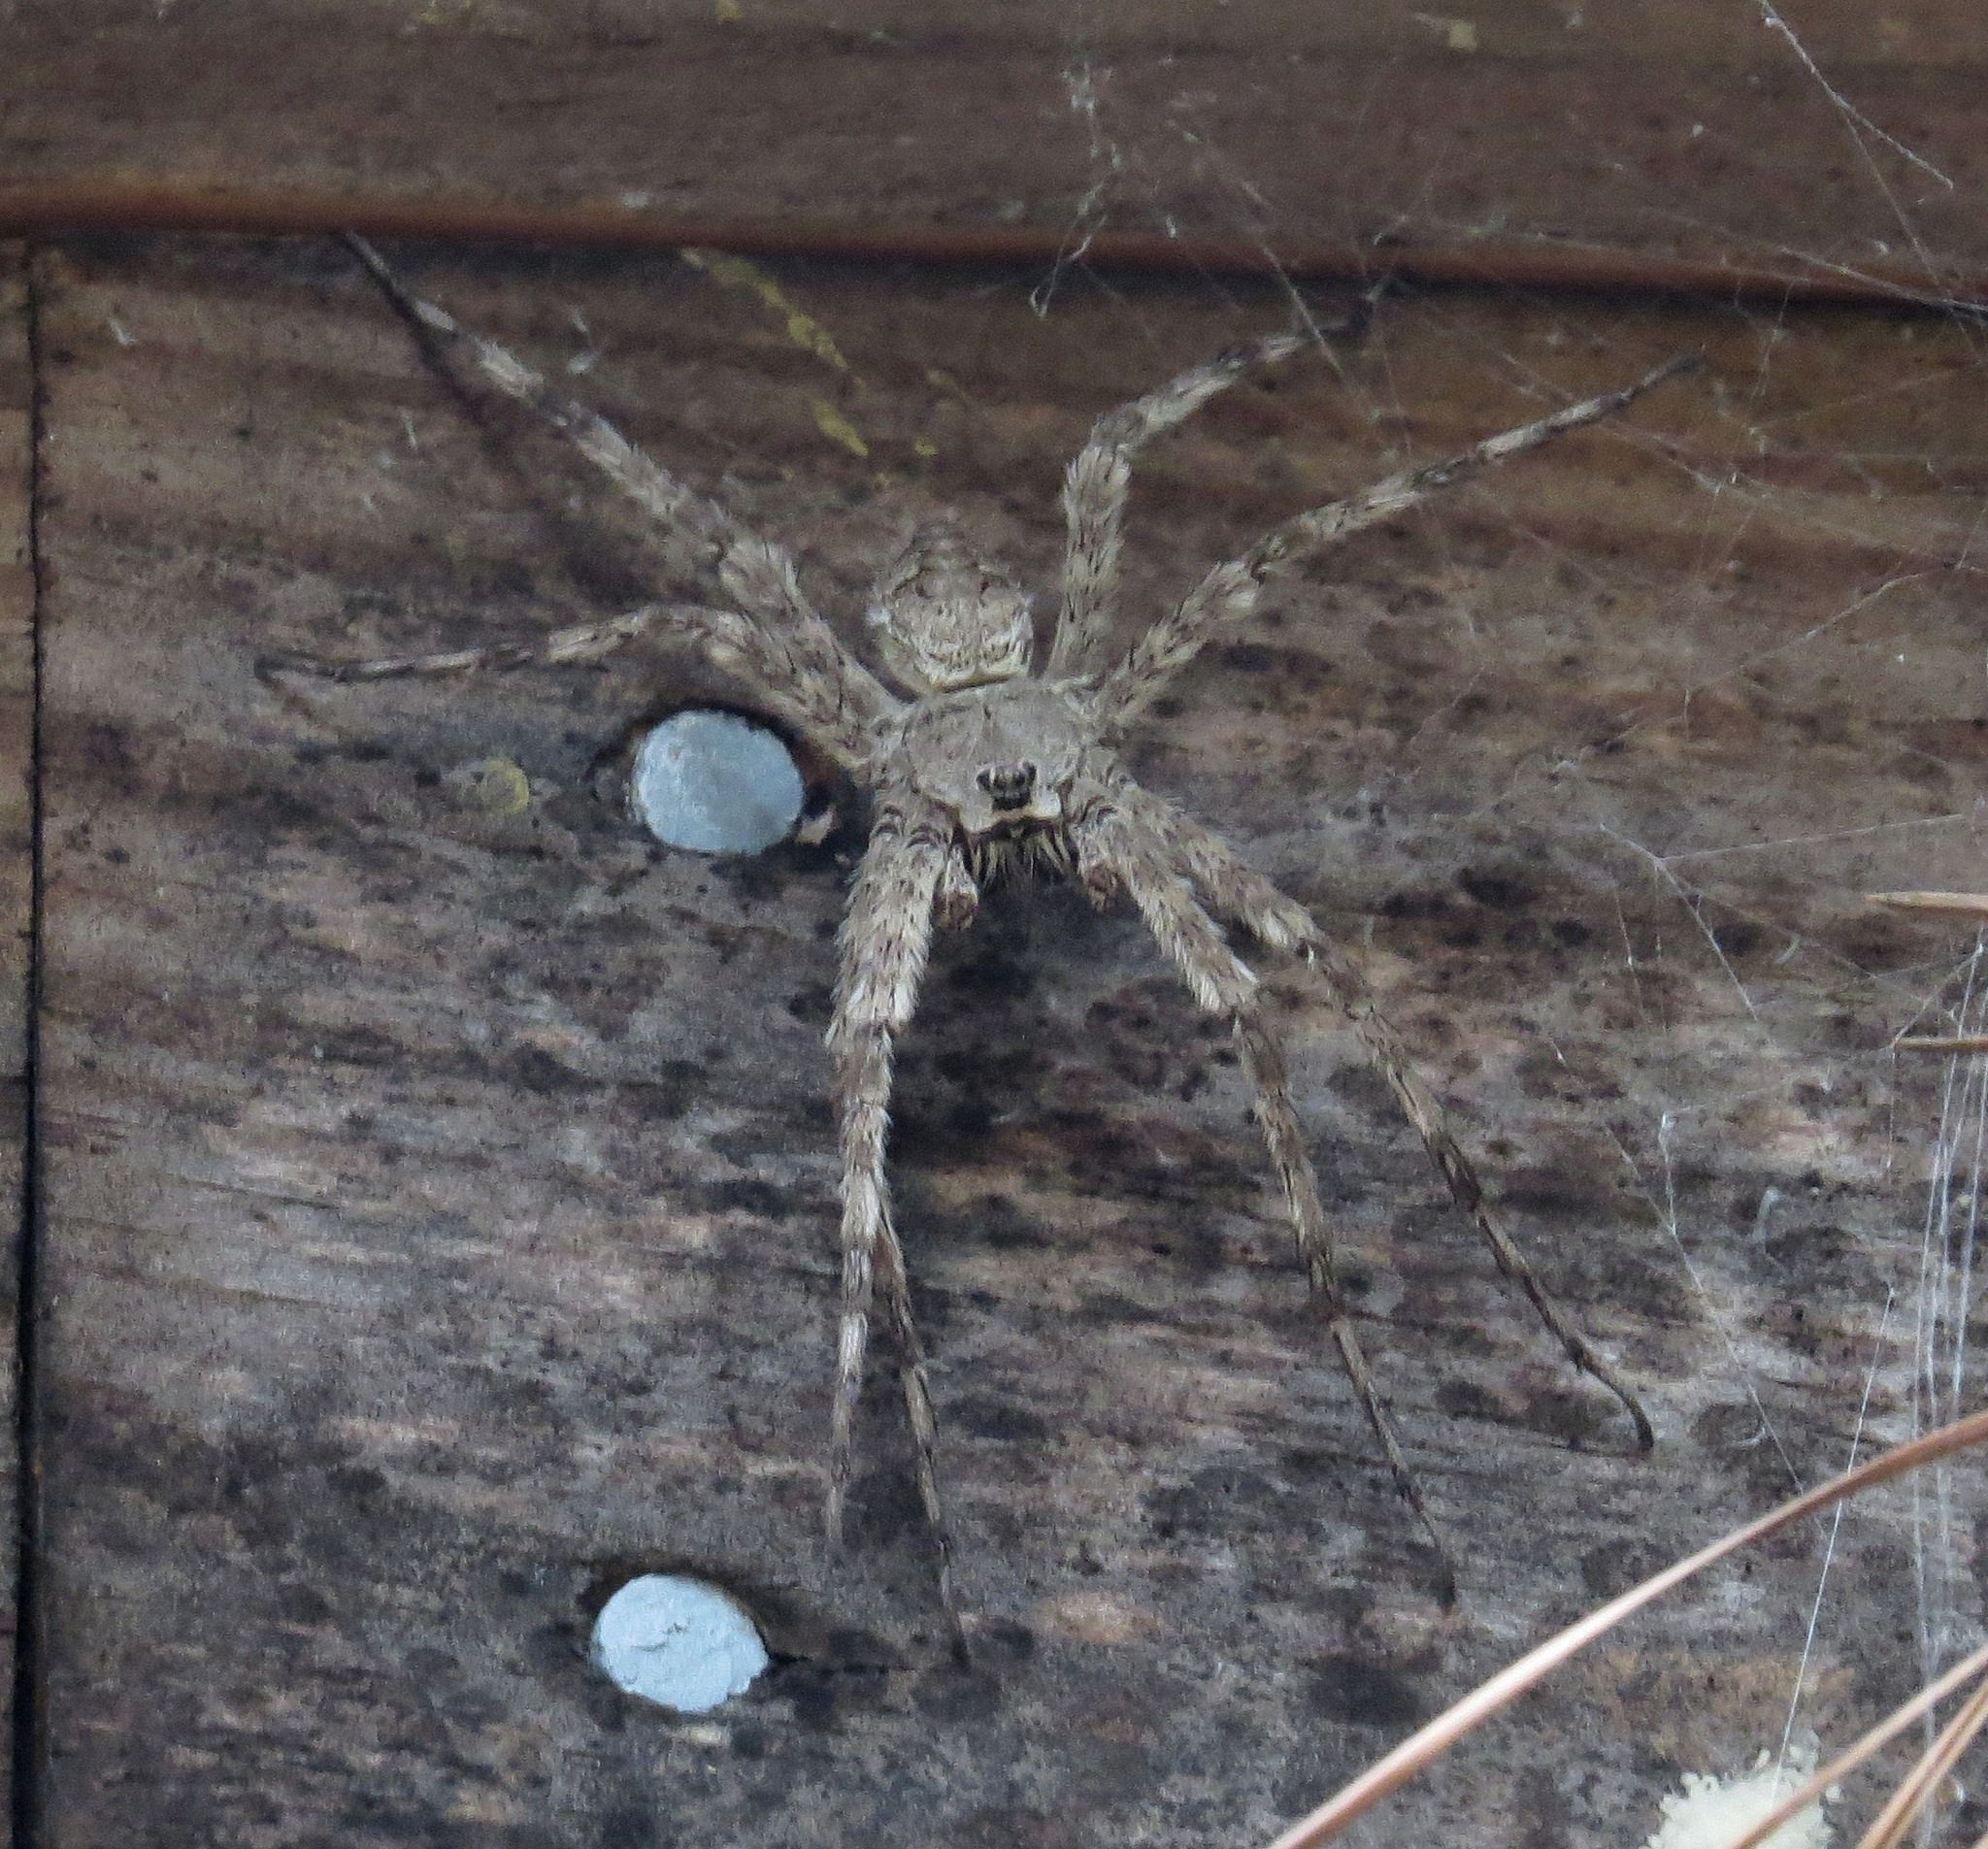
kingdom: Animalia
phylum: Arthropoda
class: Arachnida
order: Araneae
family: Pisauridae
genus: Dolomedes
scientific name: Dolomedes albineus
